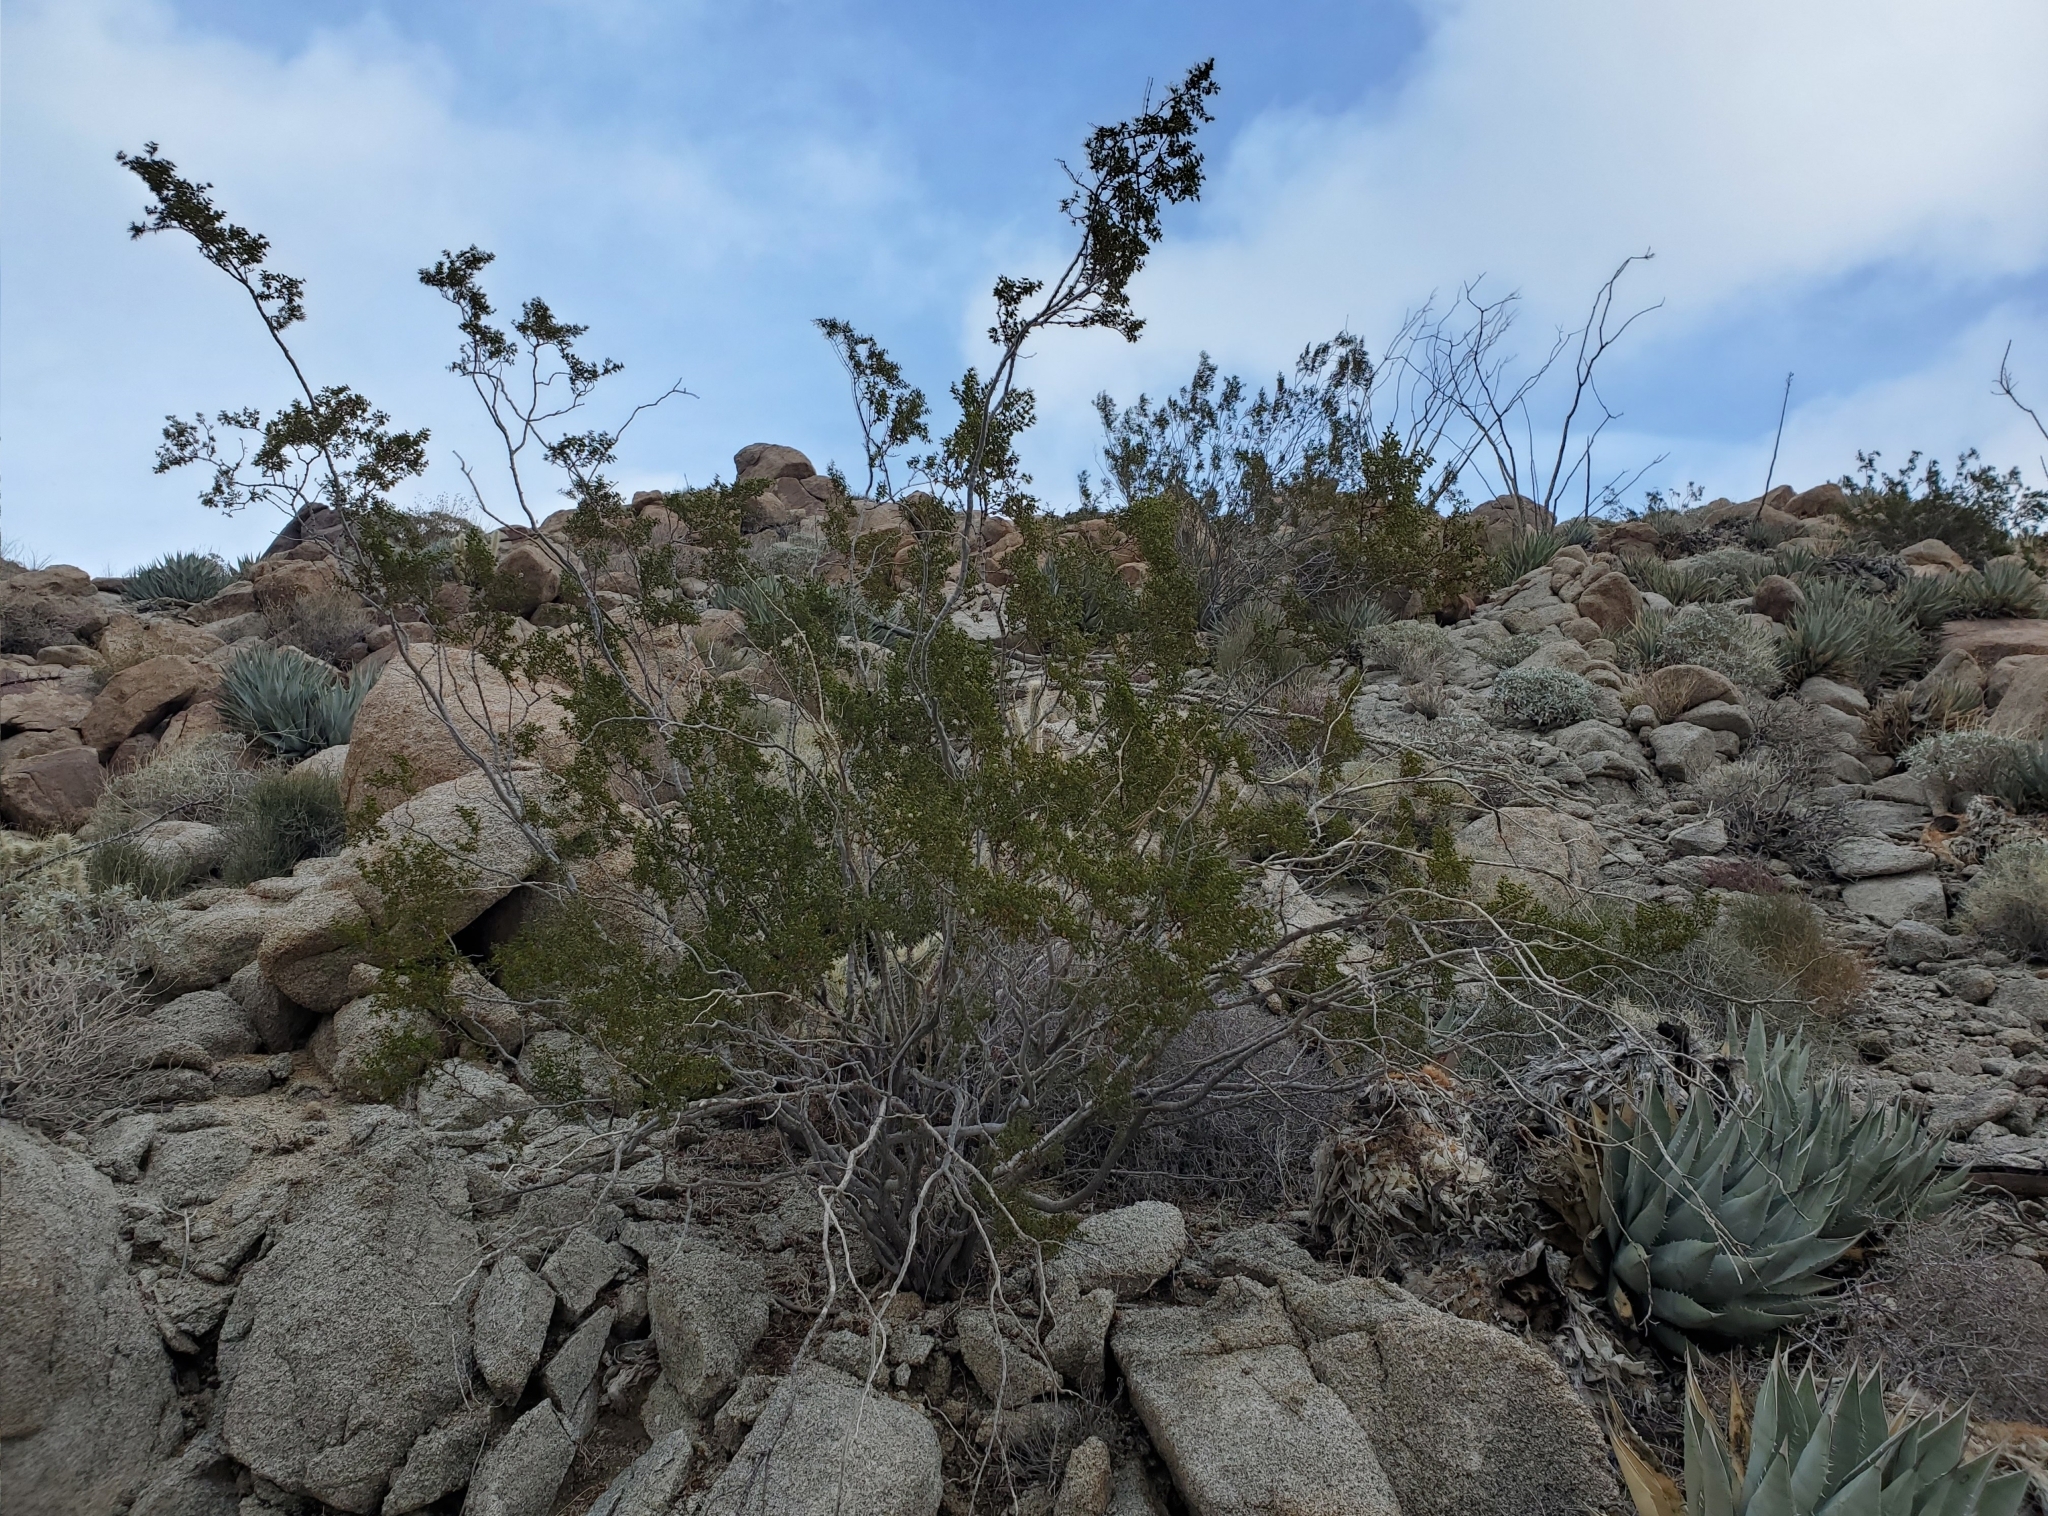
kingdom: Plantae
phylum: Tracheophyta
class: Magnoliopsida
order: Zygophyllales
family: Zygophyllaceae
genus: Larrea
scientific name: Larrea tridentata
